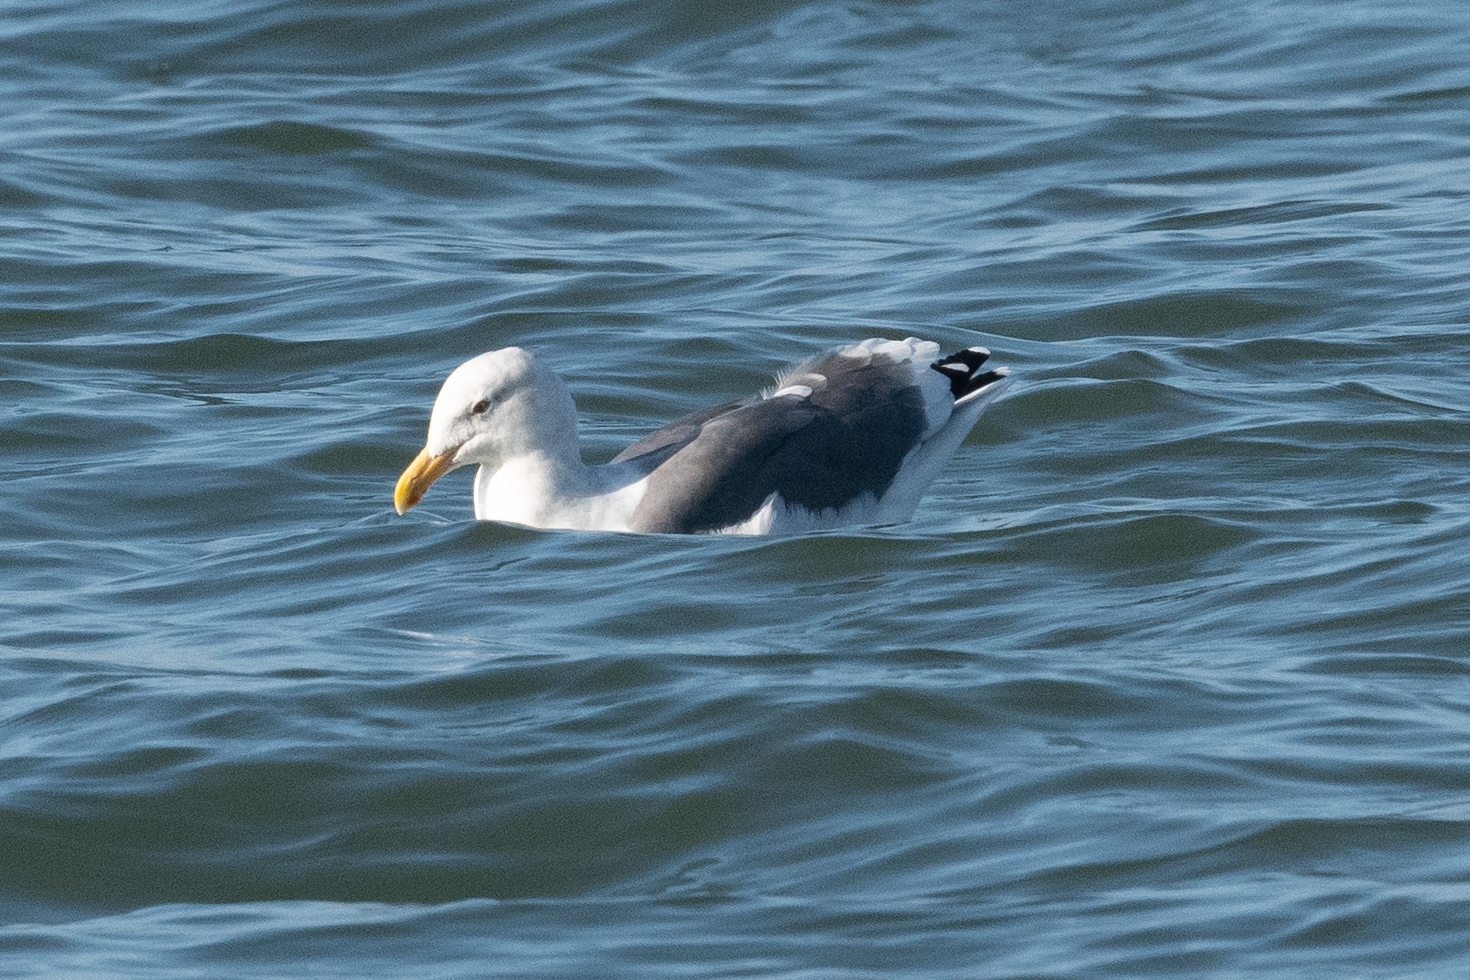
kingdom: Animalia
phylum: Chordata
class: Aves
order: Charadriiformes
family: Laridae
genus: Larus
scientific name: Larus occidentalis
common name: Western gull
